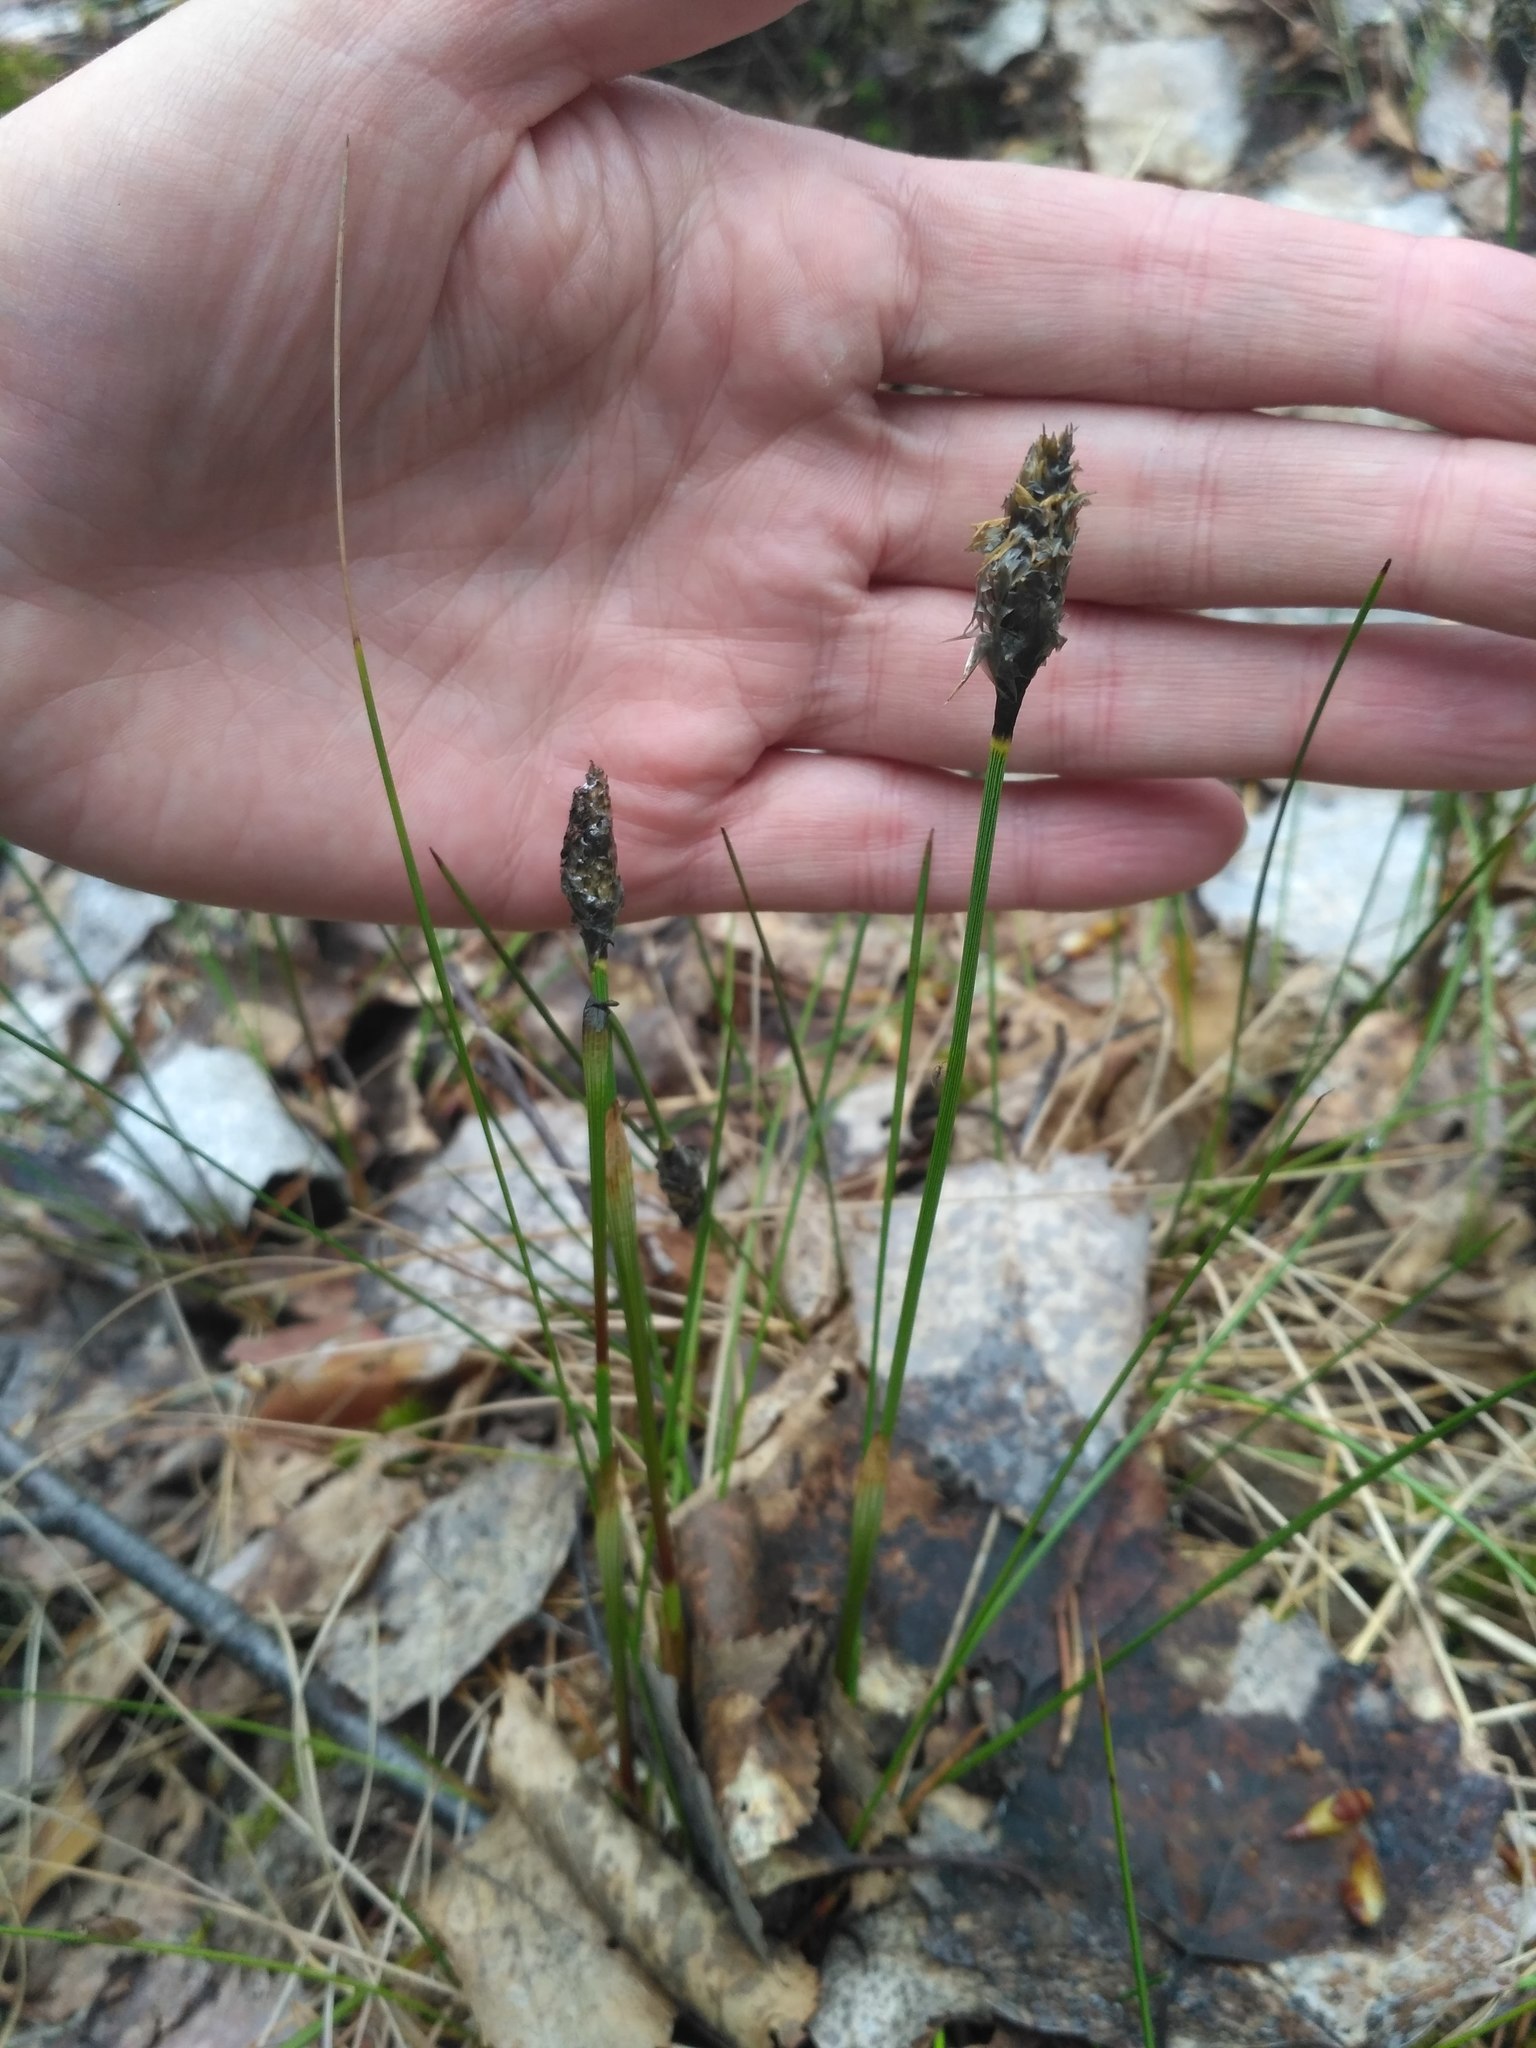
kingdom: Plantae
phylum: Tracheophyta
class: Liliopsida
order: Poales
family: Cyperaceae
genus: Eriophorum
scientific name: Eriophorum vaginatum
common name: Hare's-tail cottongrass
